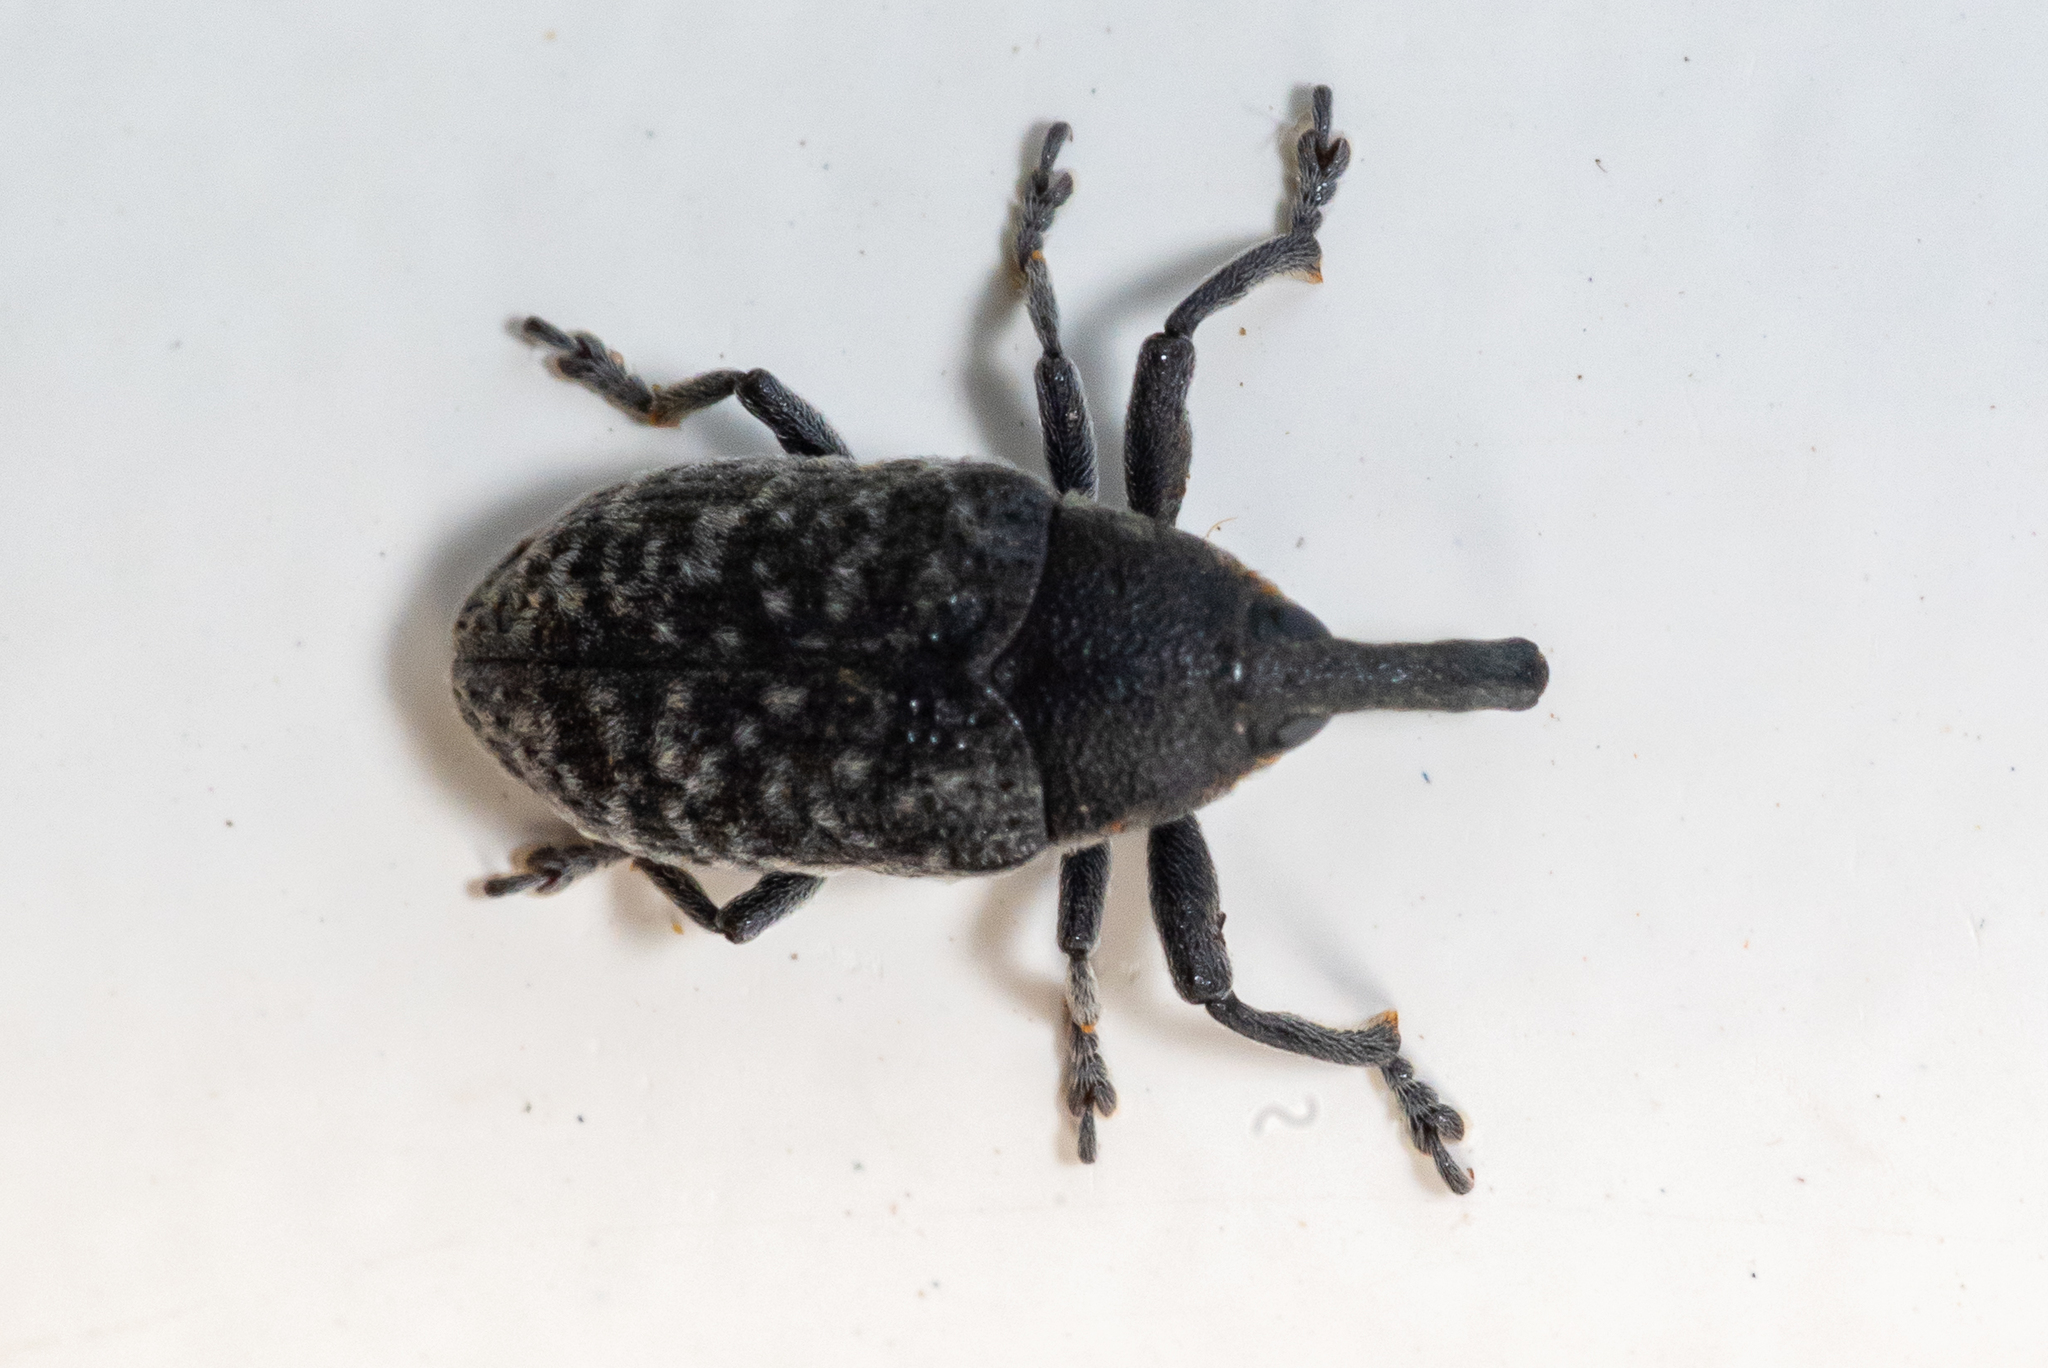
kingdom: Animalia
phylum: Arthropoda
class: Insecta
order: Coleoptera
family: Curculionidae
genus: Larinus
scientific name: Larinus carlinae
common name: Weevil
